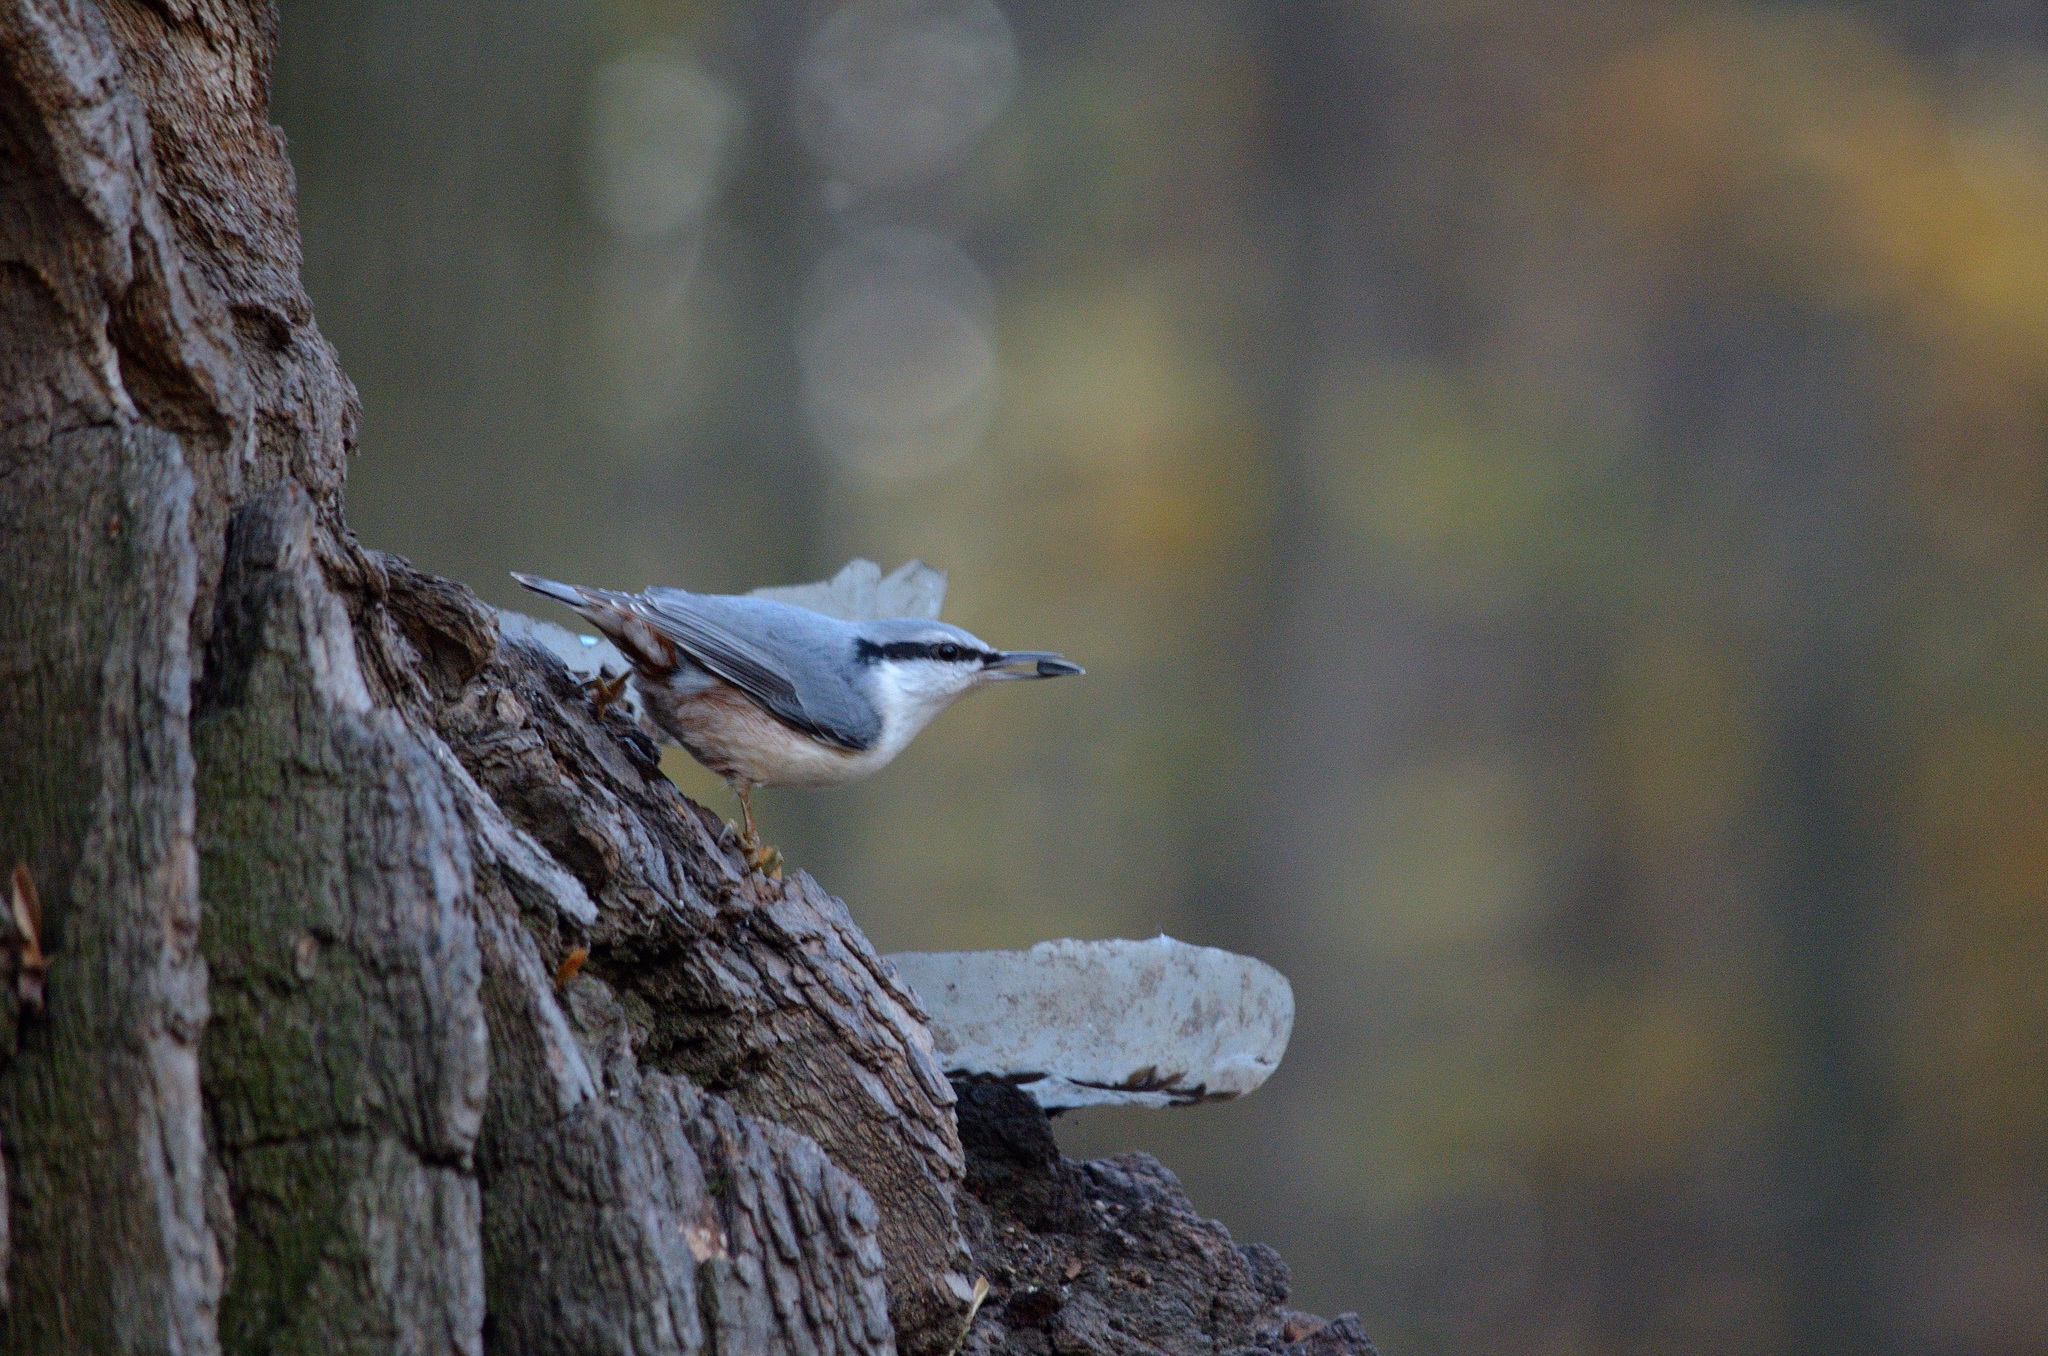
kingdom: Animalia
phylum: Chordata
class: Aves
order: Passeriformes
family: Sittidae
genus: Sitta
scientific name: Sitta europaea
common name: Eurasian nuthatch
